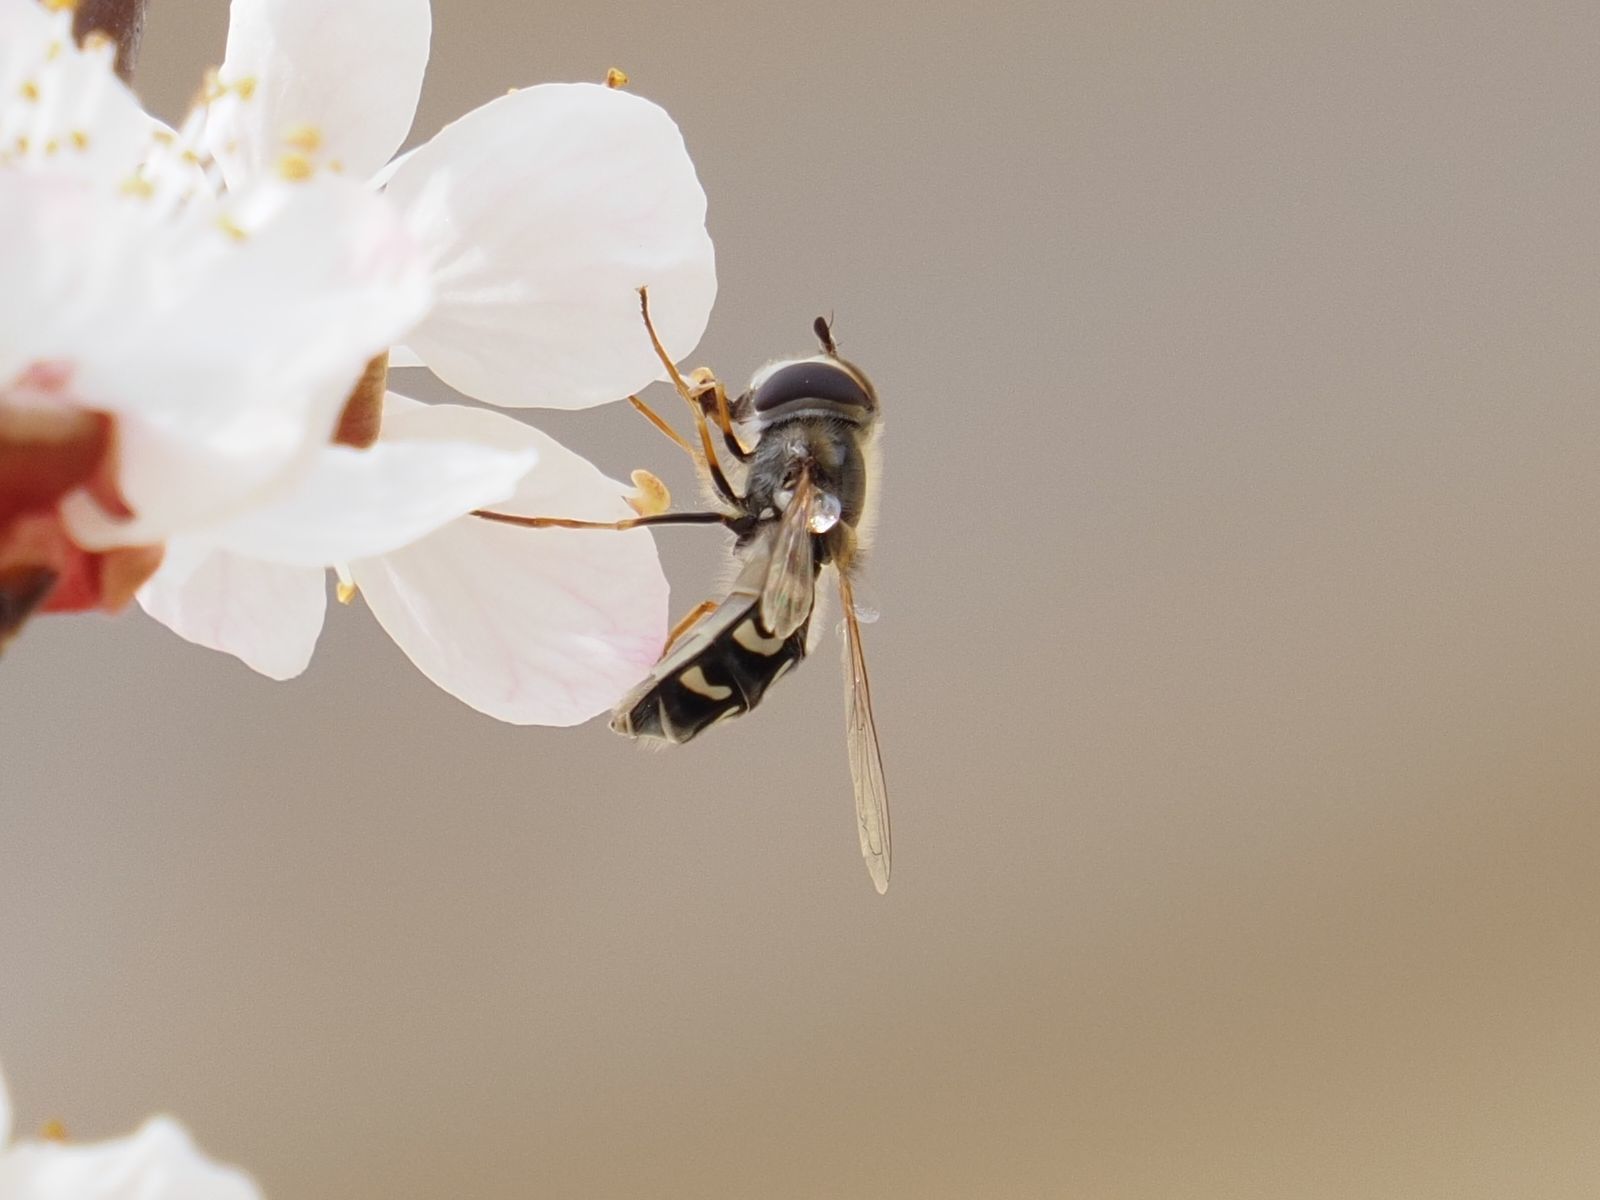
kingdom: Animalia
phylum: Arthropoda
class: Insecta
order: Diptera
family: Syrphidae
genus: Scaeva
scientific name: Scaeva pyrastri
